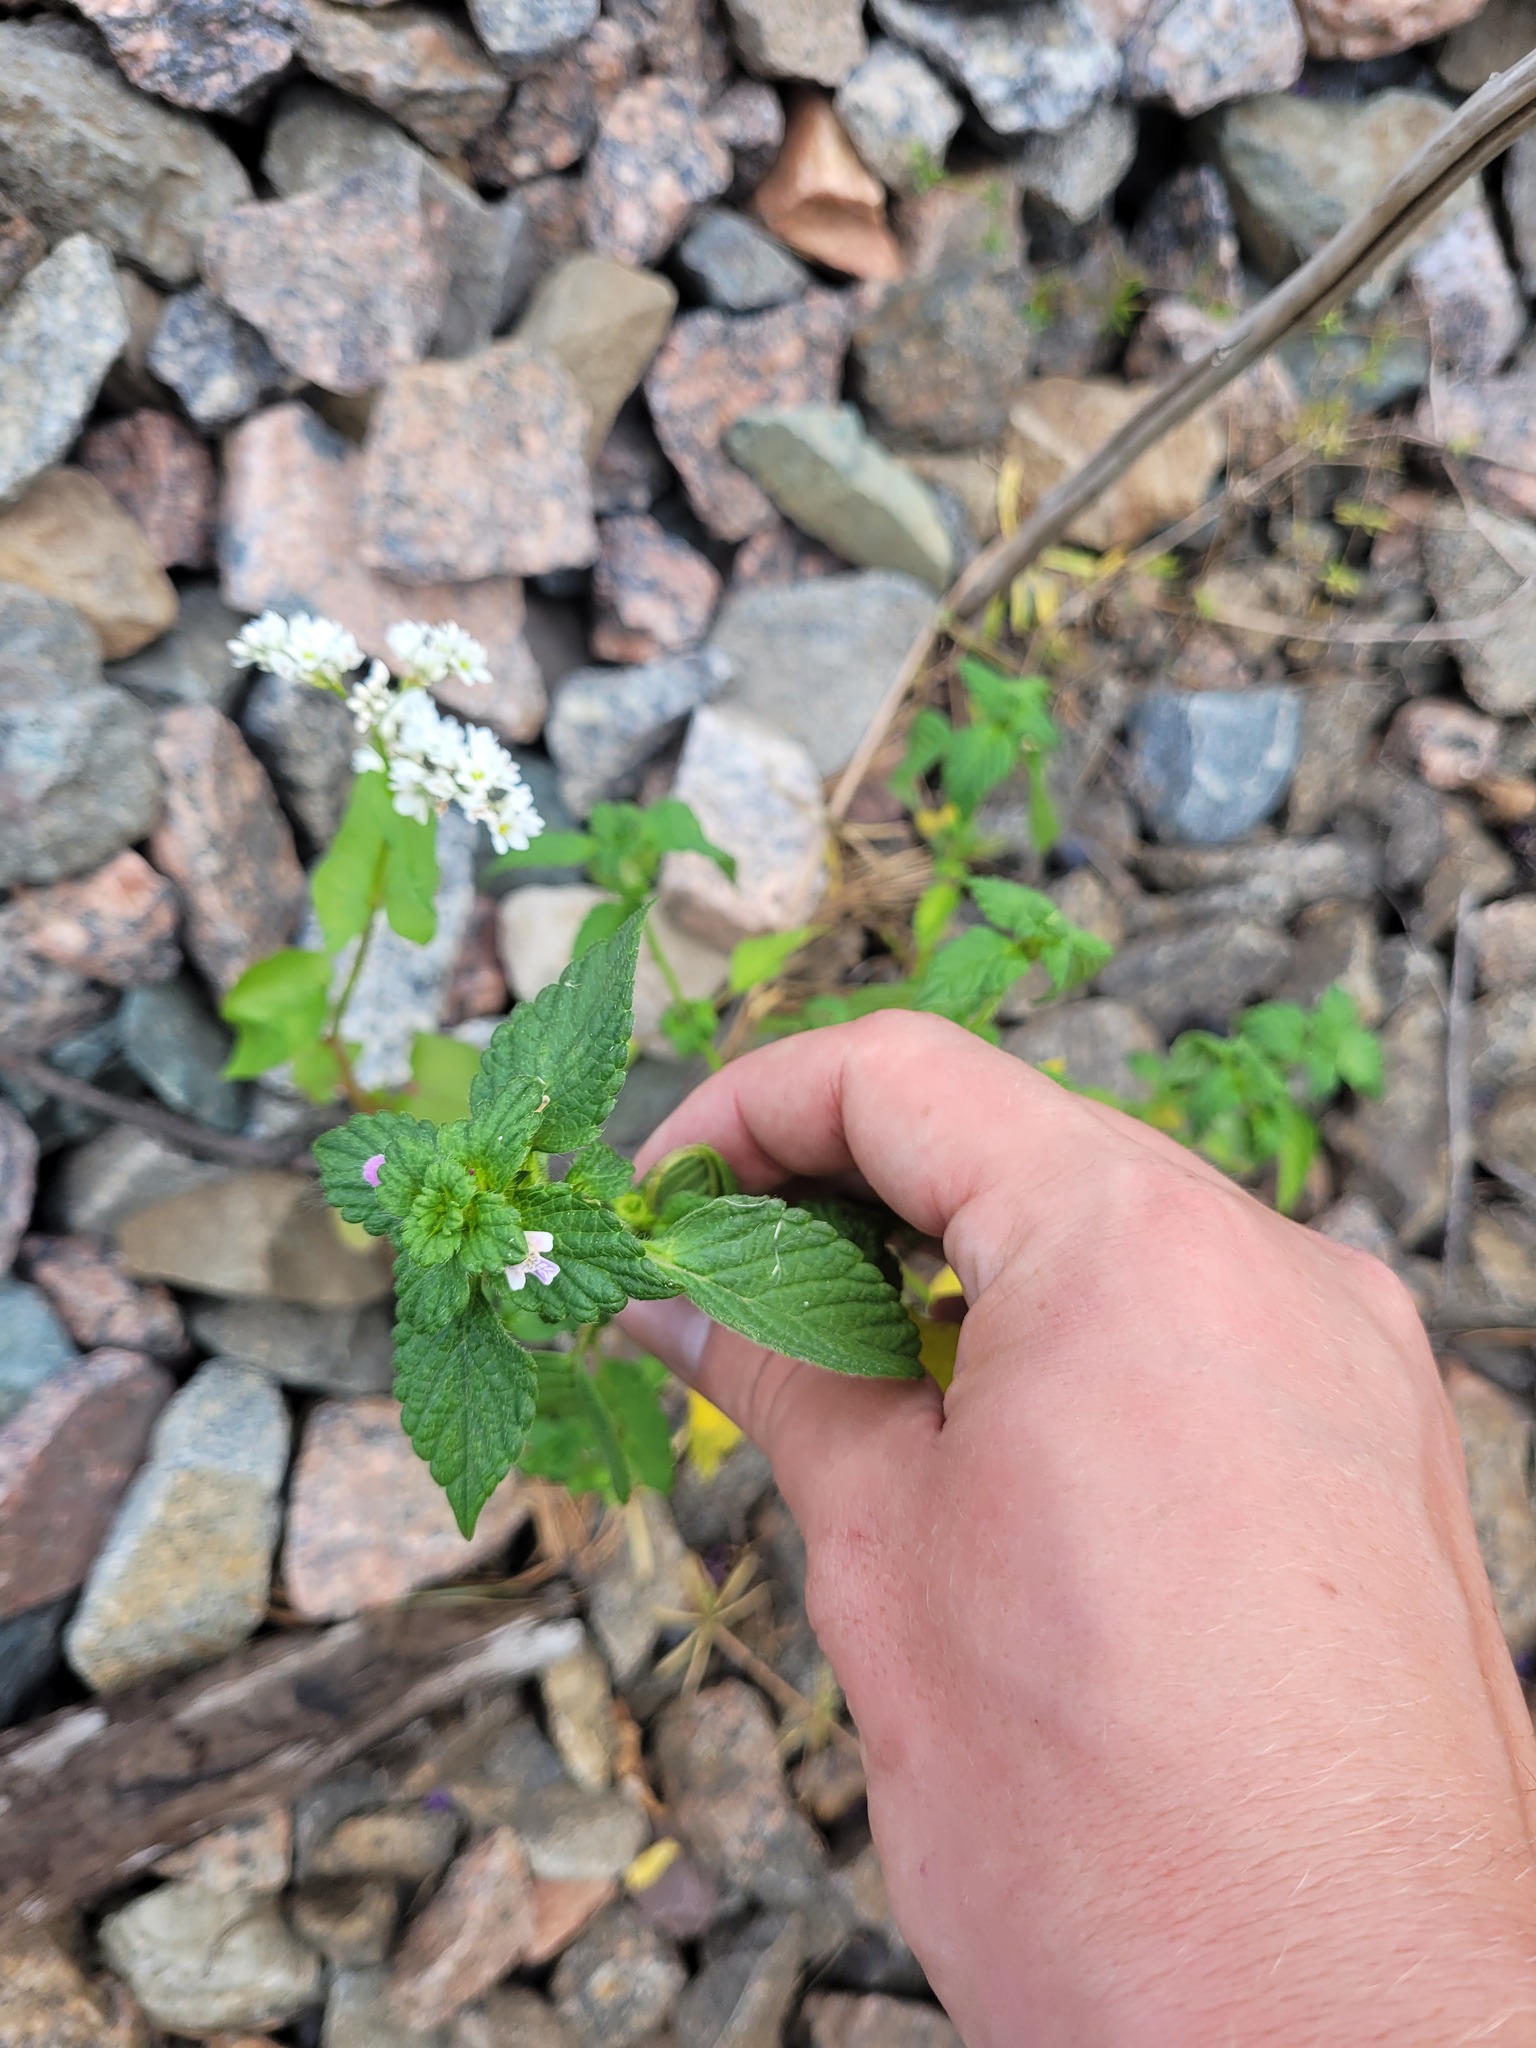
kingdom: Plantae
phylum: Tracheophyta
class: Magnoliopsida
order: Lamiales
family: Lamiaceae
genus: Galeopsis
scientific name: Galeopsis bifida
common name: Bifid hemp-nettle
